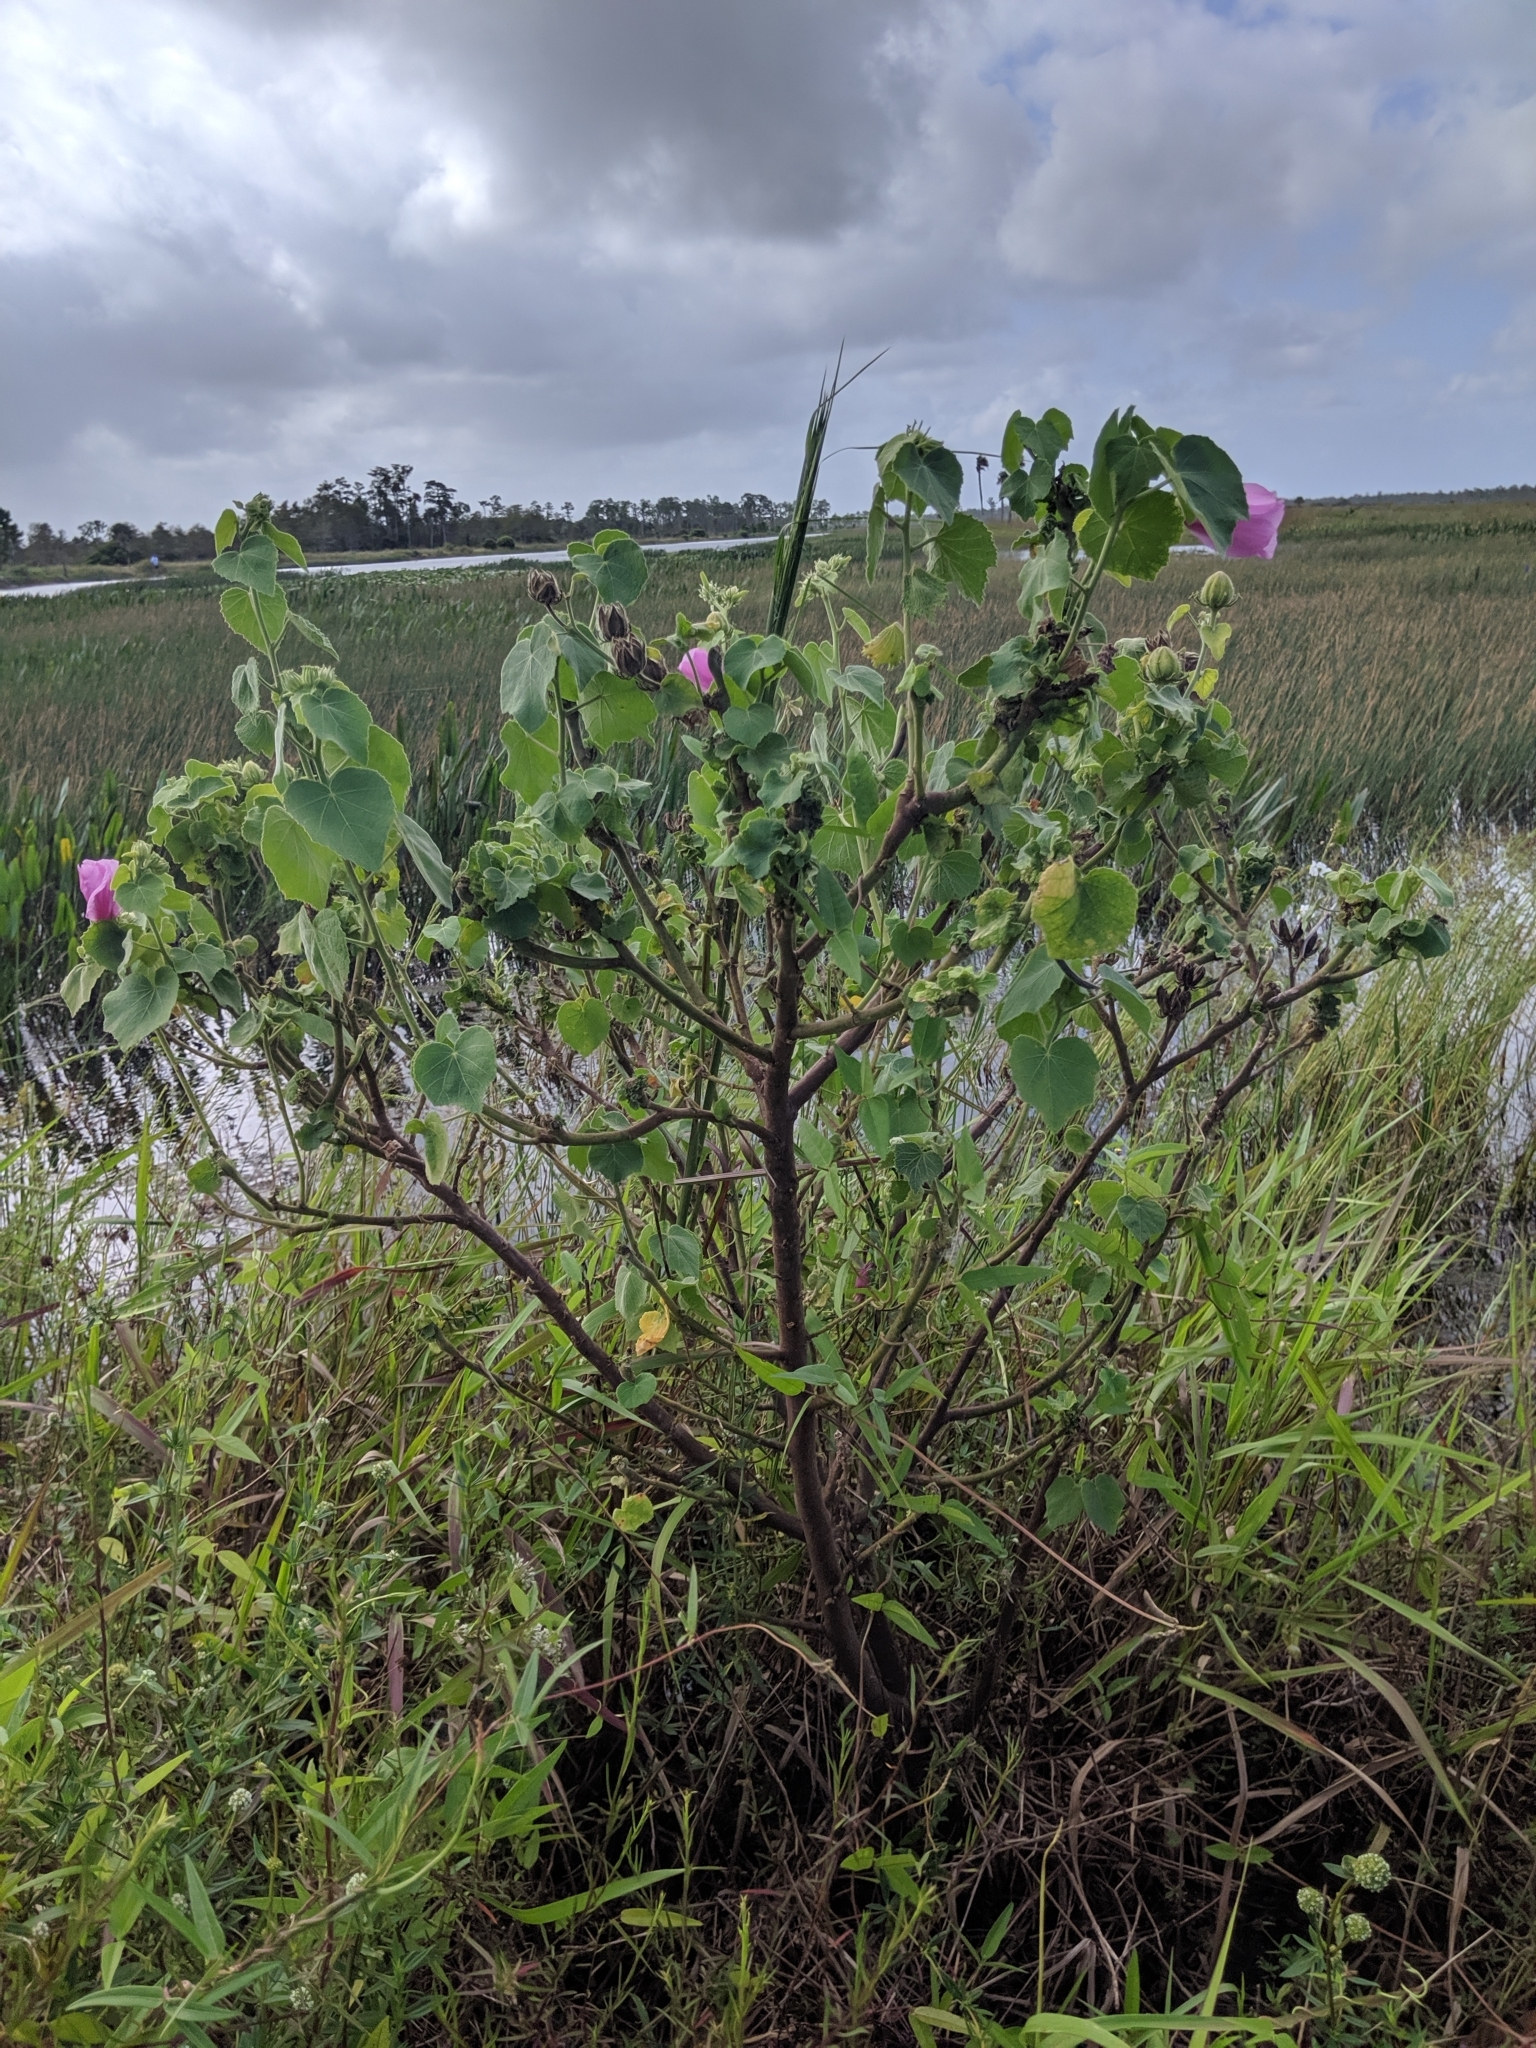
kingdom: Plantae
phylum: Tracheophyta
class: Magnoliopsida
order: Malvales
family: Malvaceae
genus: Hibiscus
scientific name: Hibiscus furcellatus
